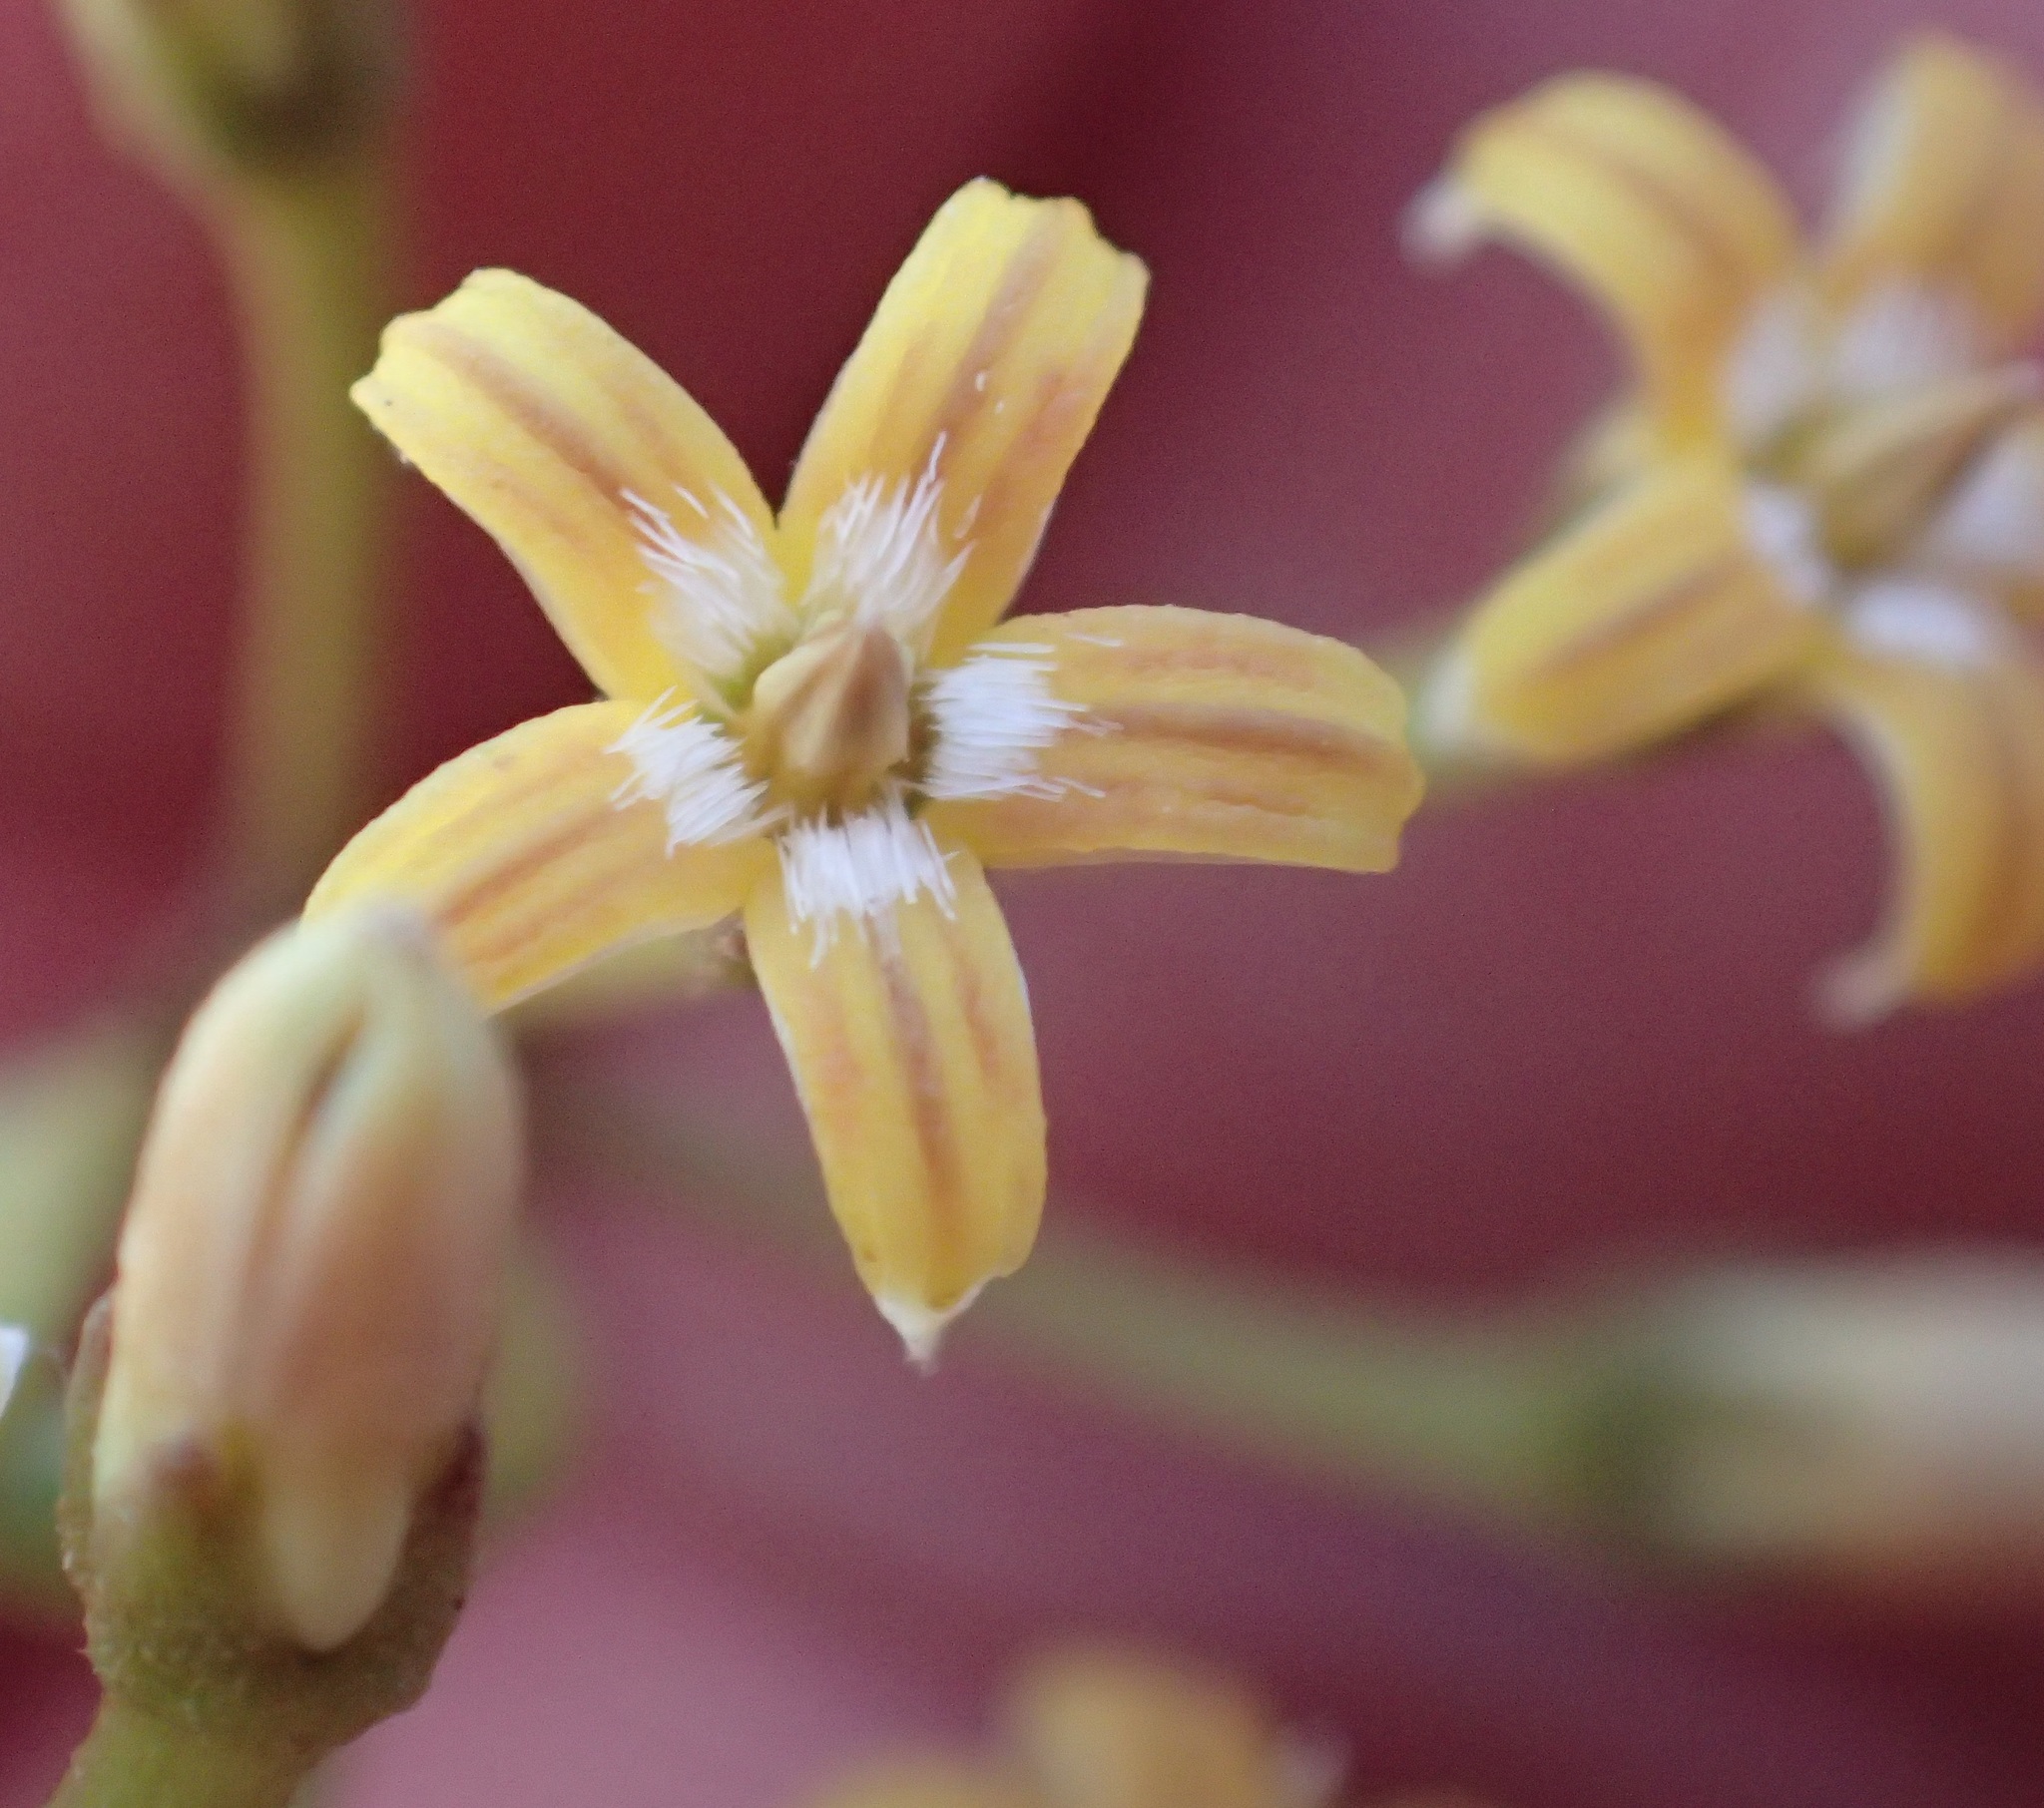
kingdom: Plantae
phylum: Tracheophyta
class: Magnoliopsida
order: Gentianales
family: Apocynaceae
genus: Parsonsia
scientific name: Parsonsia brownii
